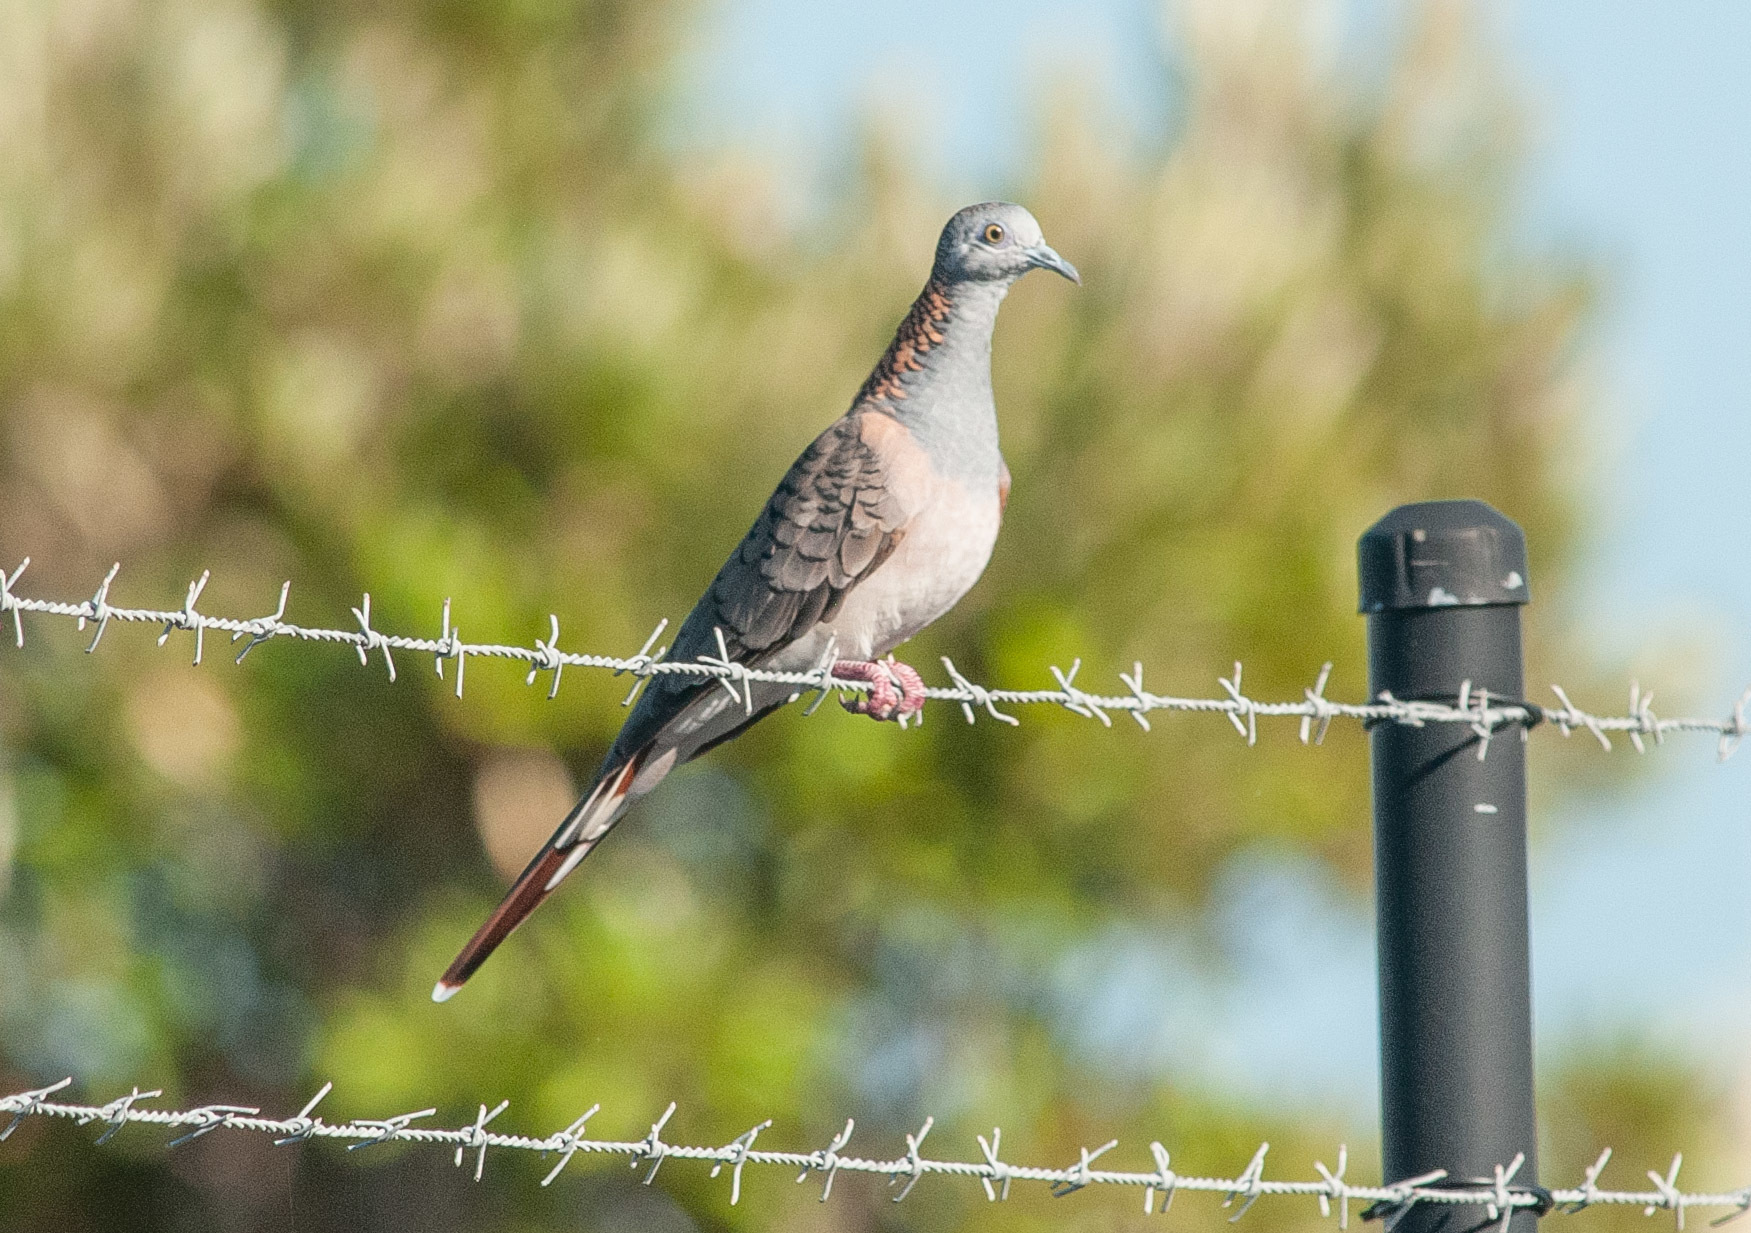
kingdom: Animalia
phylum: Chordata
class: Aves
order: Columbiformes
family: Columbidae
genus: Geopelia
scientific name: Geopelia humeralis
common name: Bar-shouldered dove
